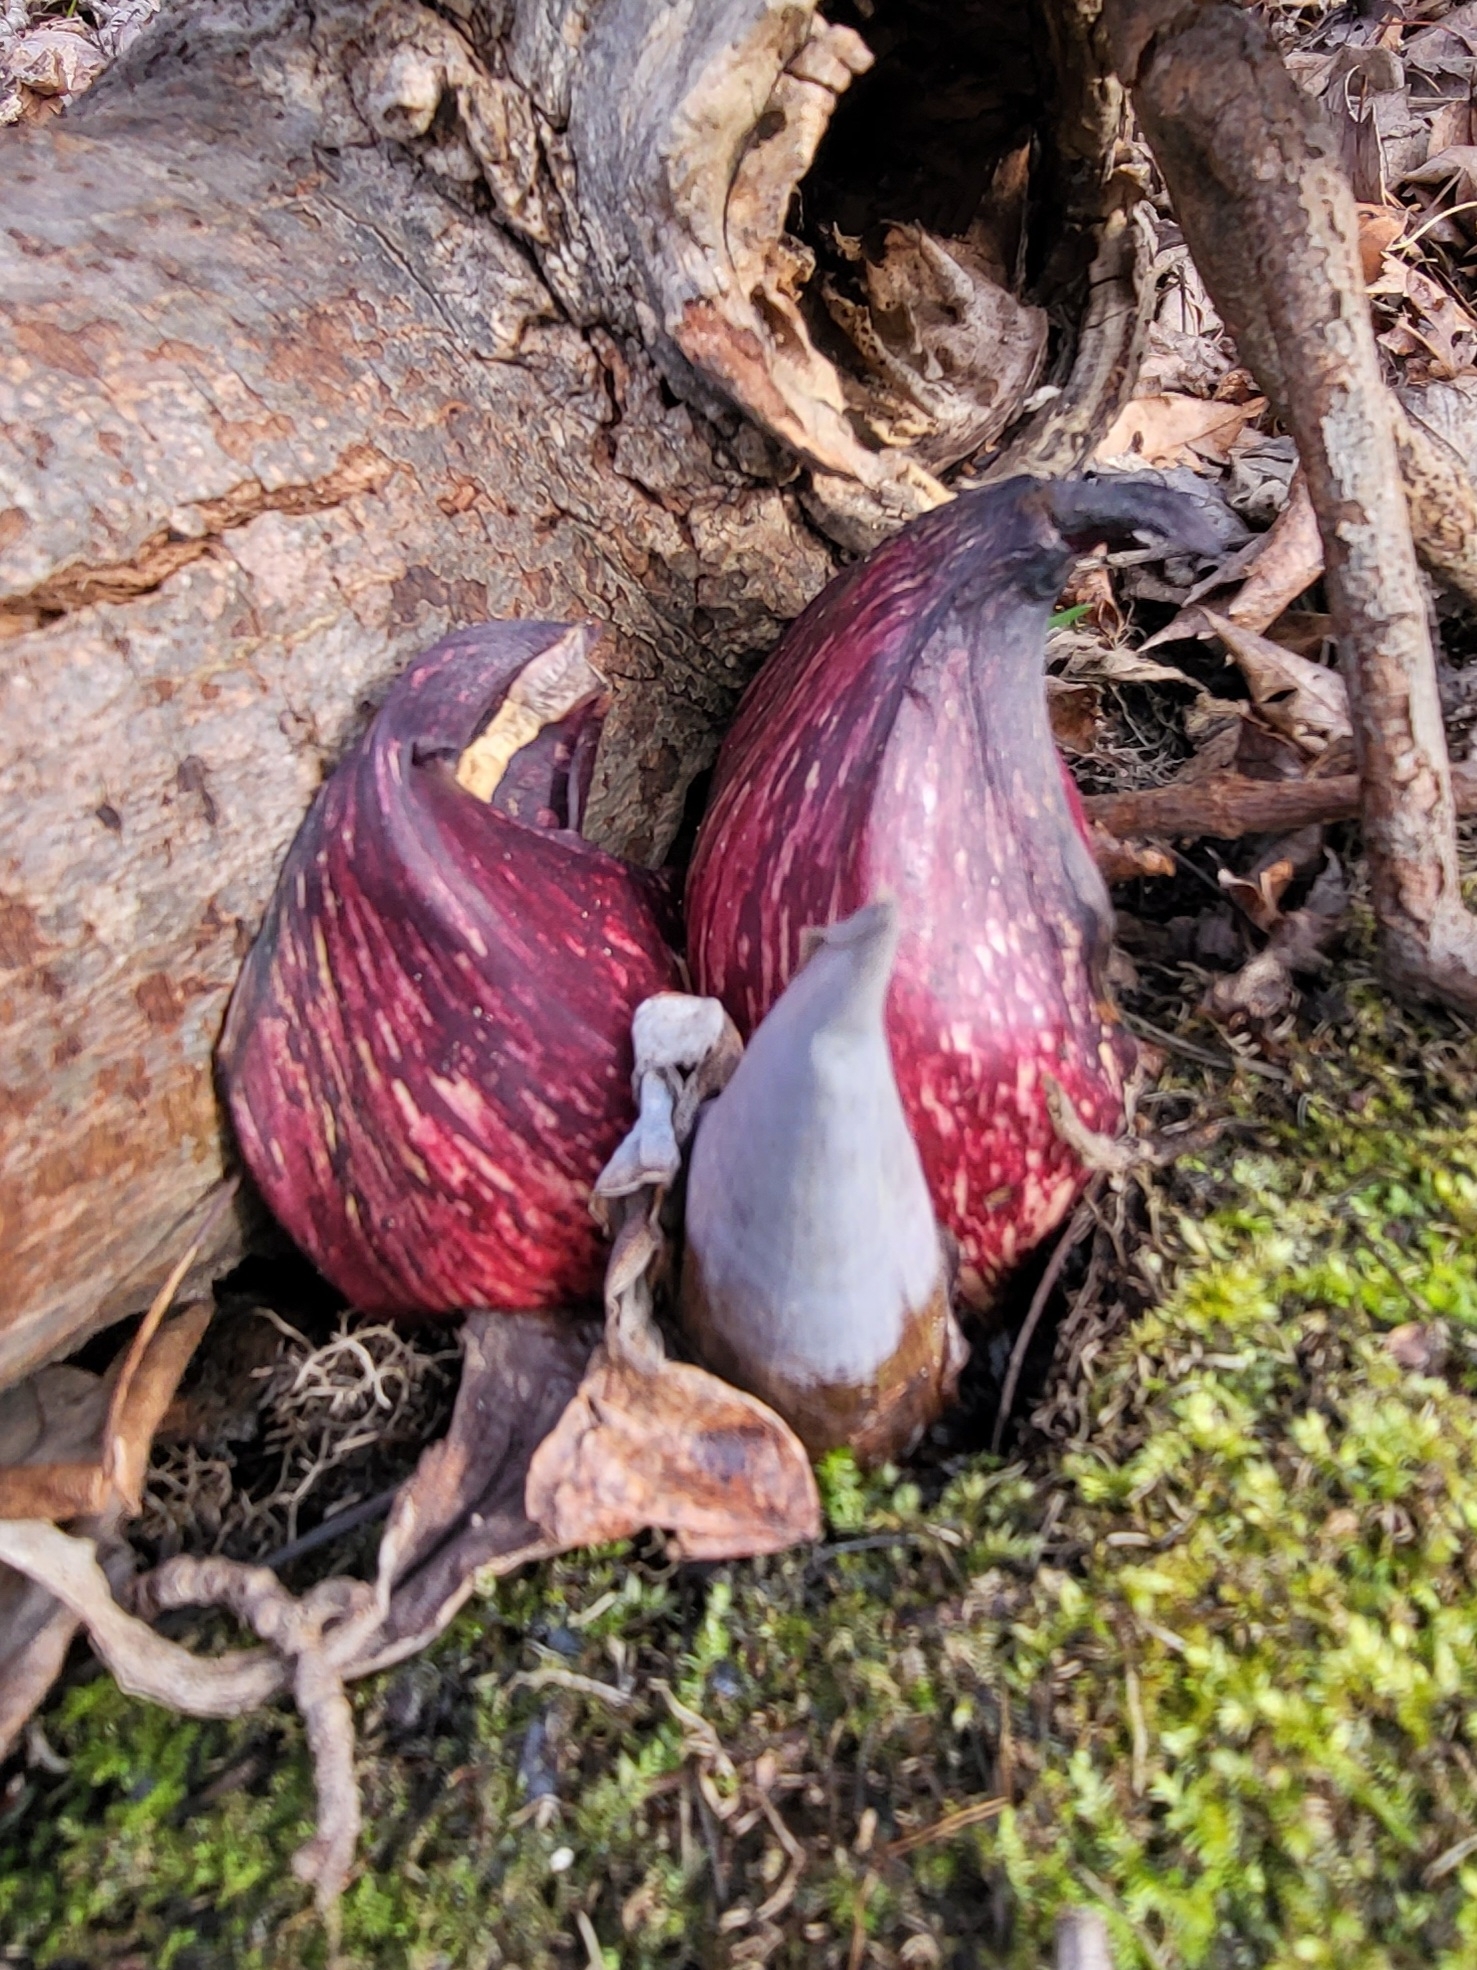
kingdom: Plantae
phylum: Tracheophyta
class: Liliopsida
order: Alismatales
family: Araceae
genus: Symplocarpus
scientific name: Symplocarpus foetidus
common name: Eastern skunk cabbage
